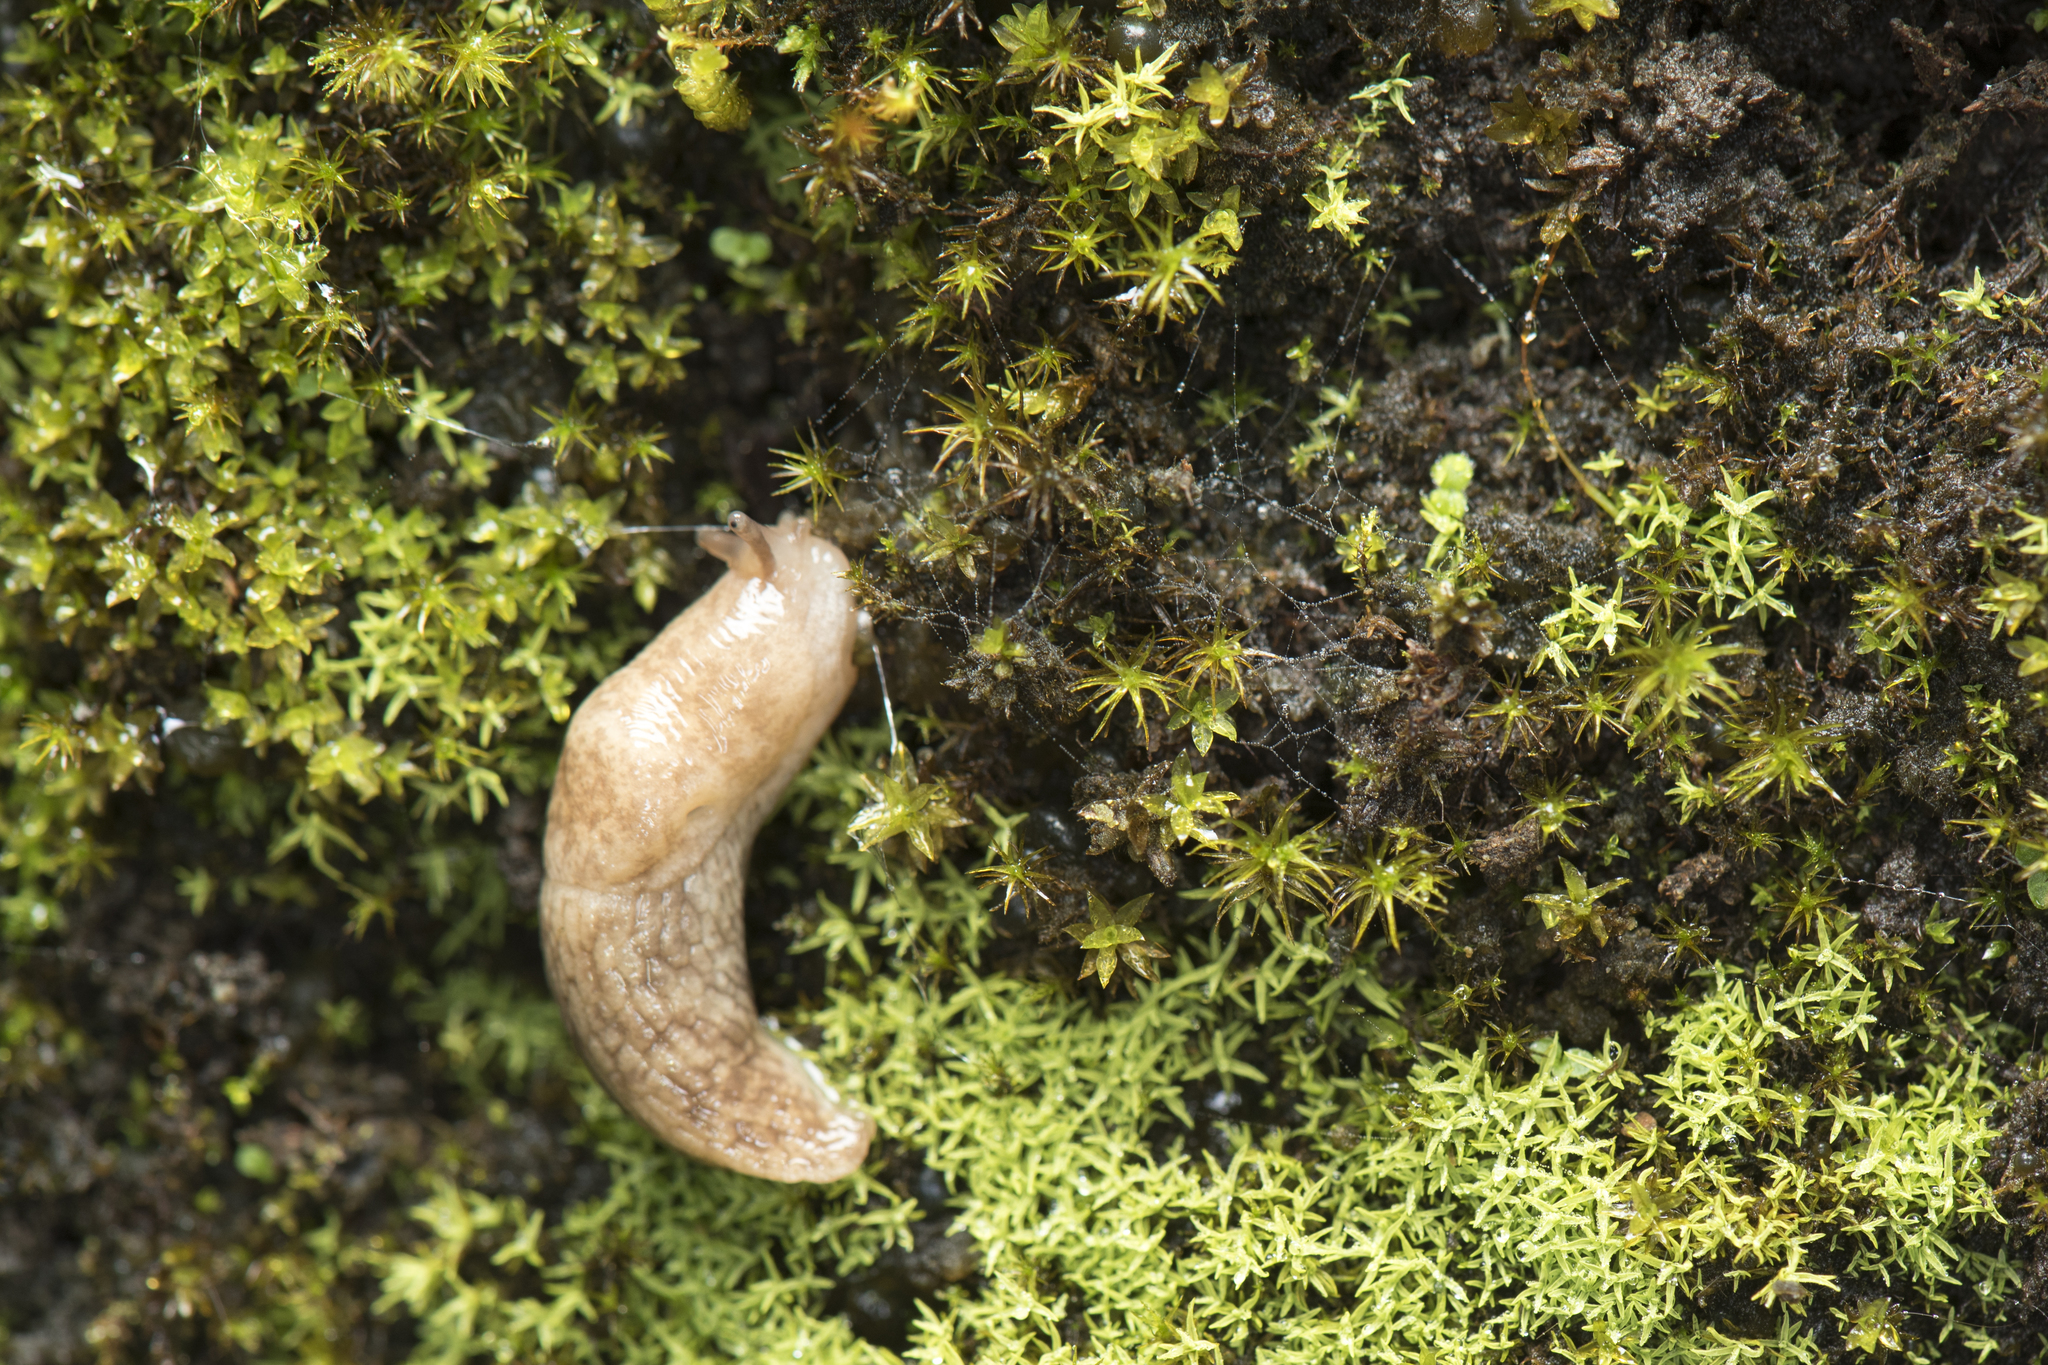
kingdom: Animalia
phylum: Mollusca
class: Gastropoda
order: Stylommatophora
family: Agriolimacidae
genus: Deroceras
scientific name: Deroceras reticulatum
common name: Gray field slug
